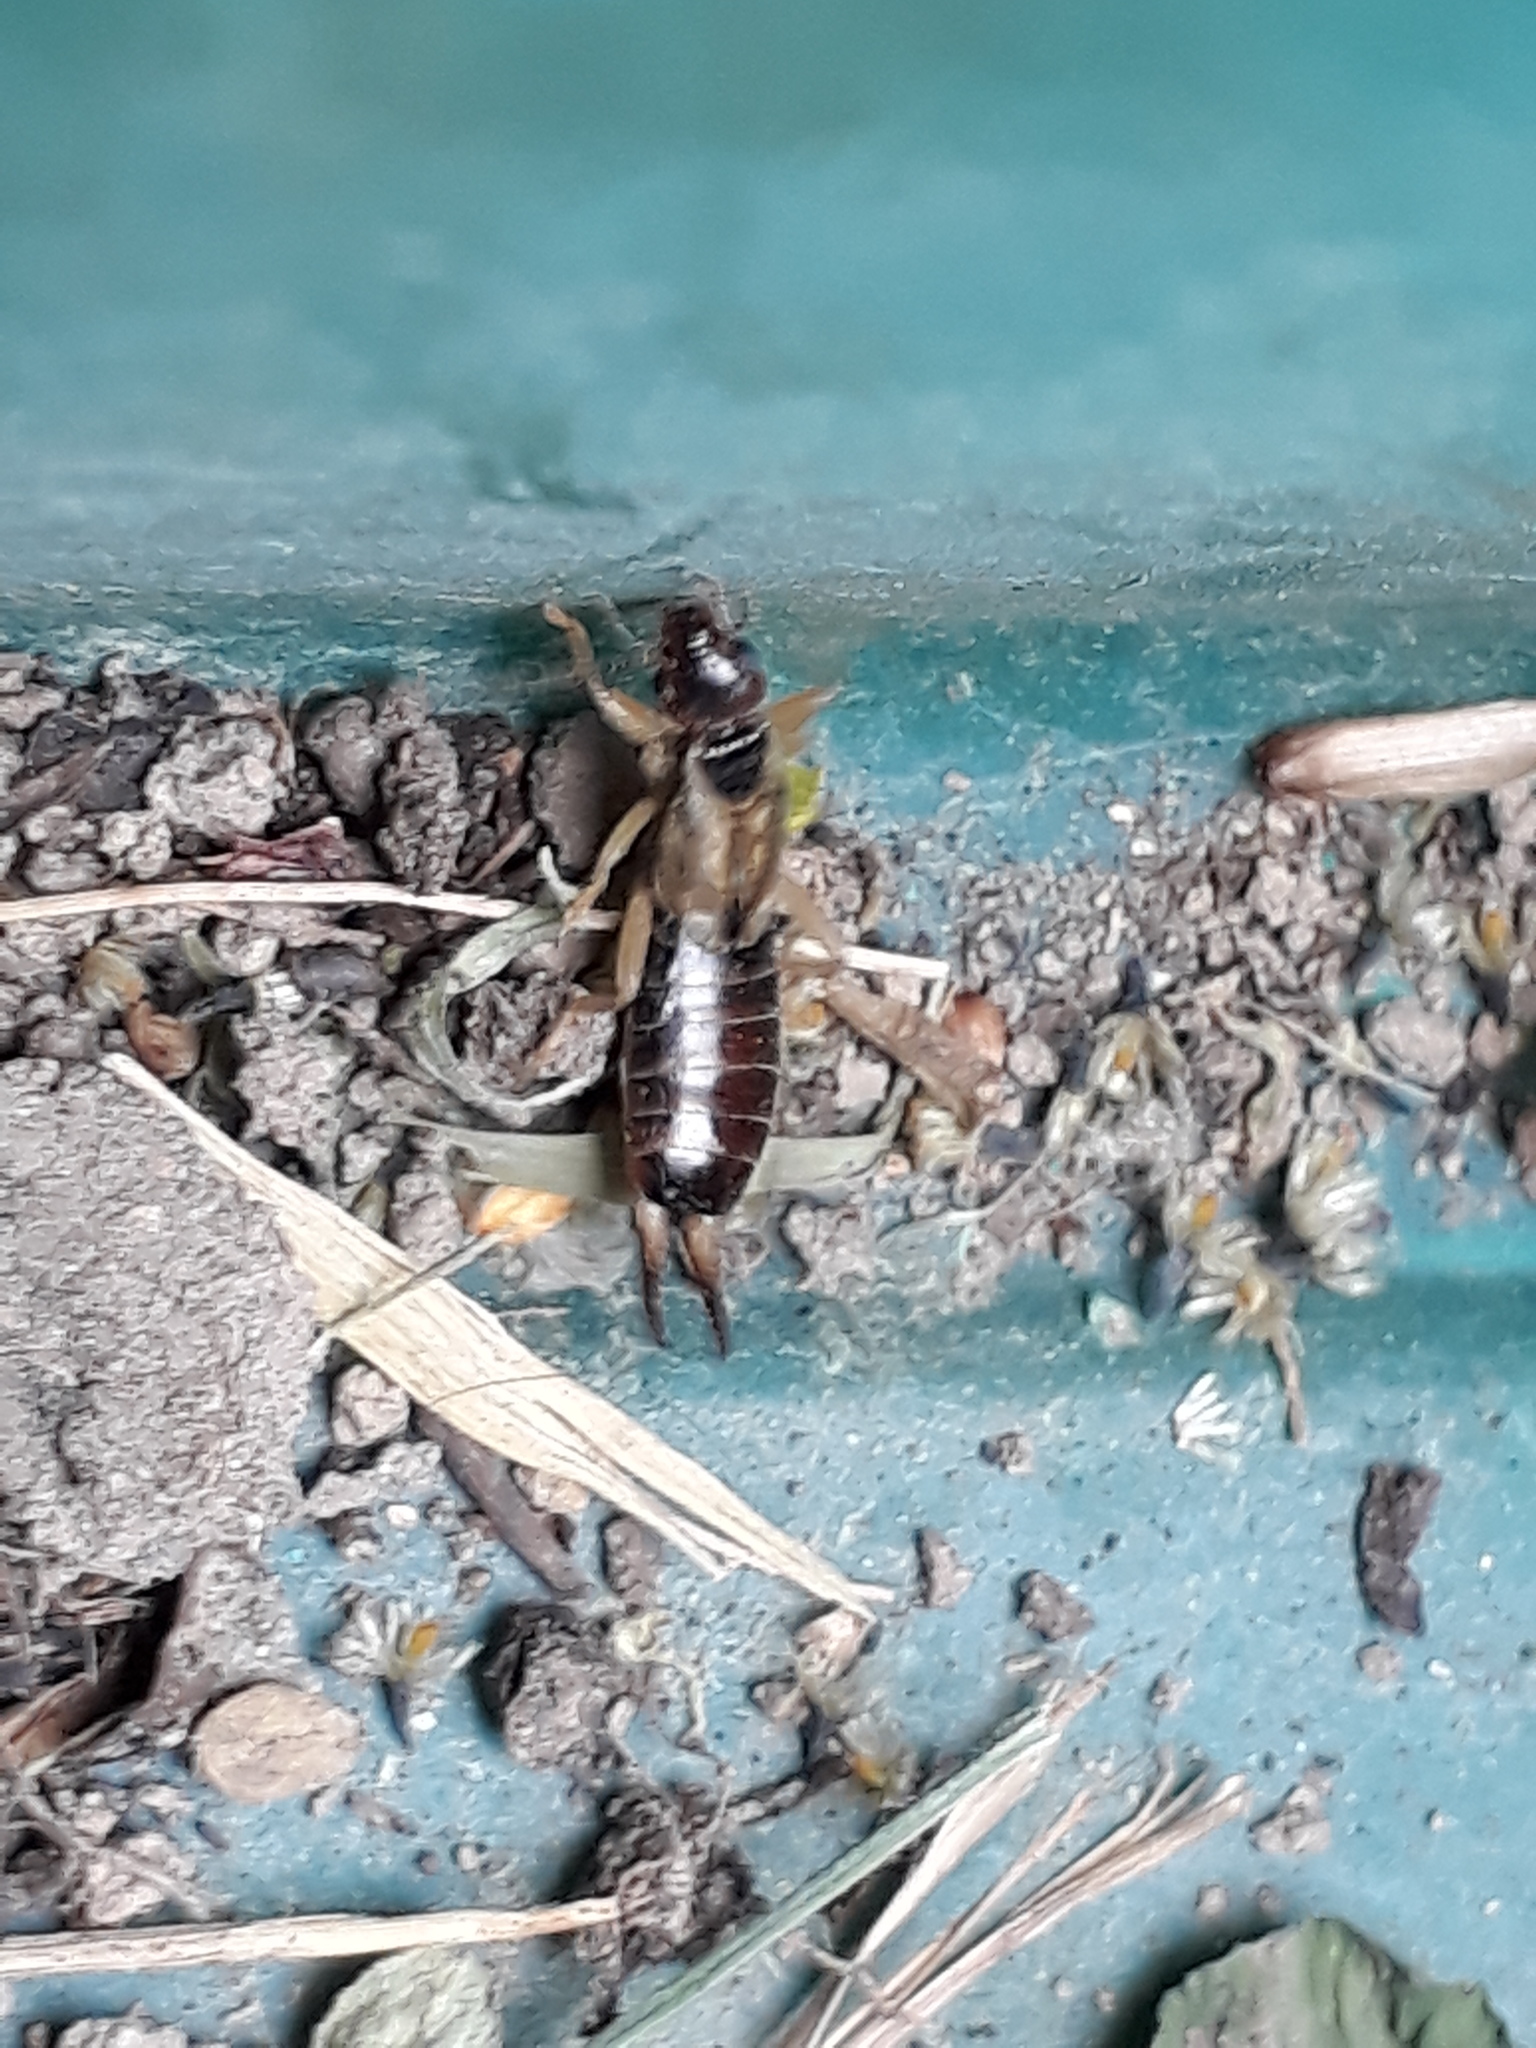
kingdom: Animalia
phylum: Arthropoda
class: Insecta
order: Dermaptera
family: Forficulidae
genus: Forficula
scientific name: Forficula dentata
